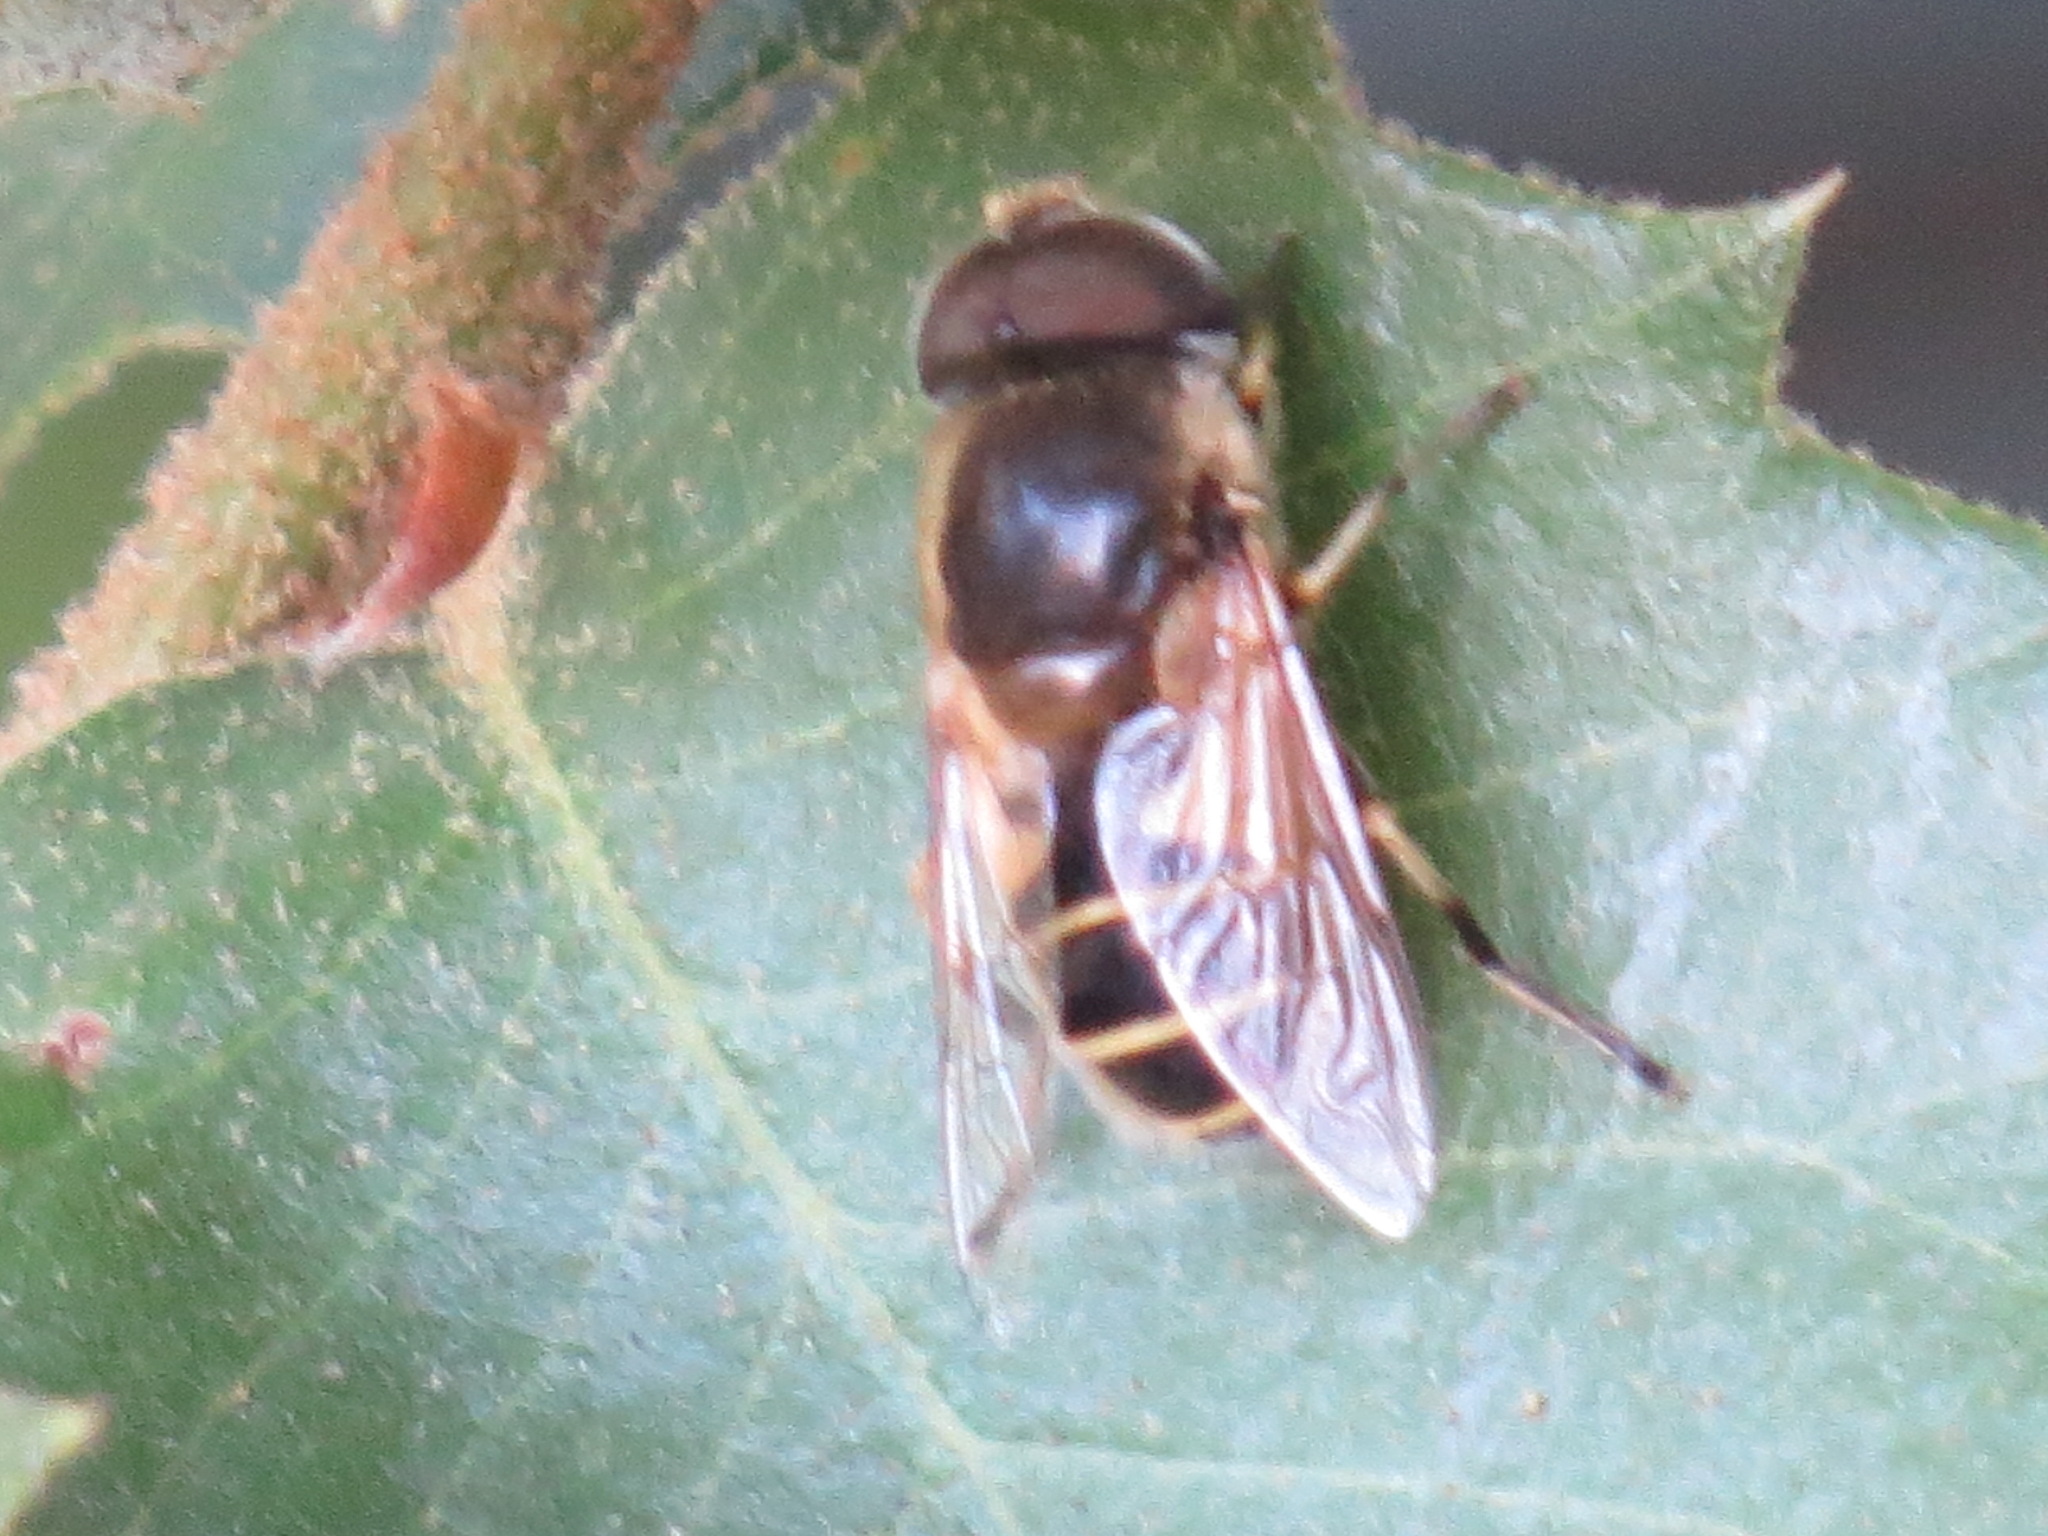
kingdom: Animalia
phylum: Arthropoda
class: Insecta
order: Diptera
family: Syrphidae
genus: Eristalis
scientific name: Eristalis hirta
